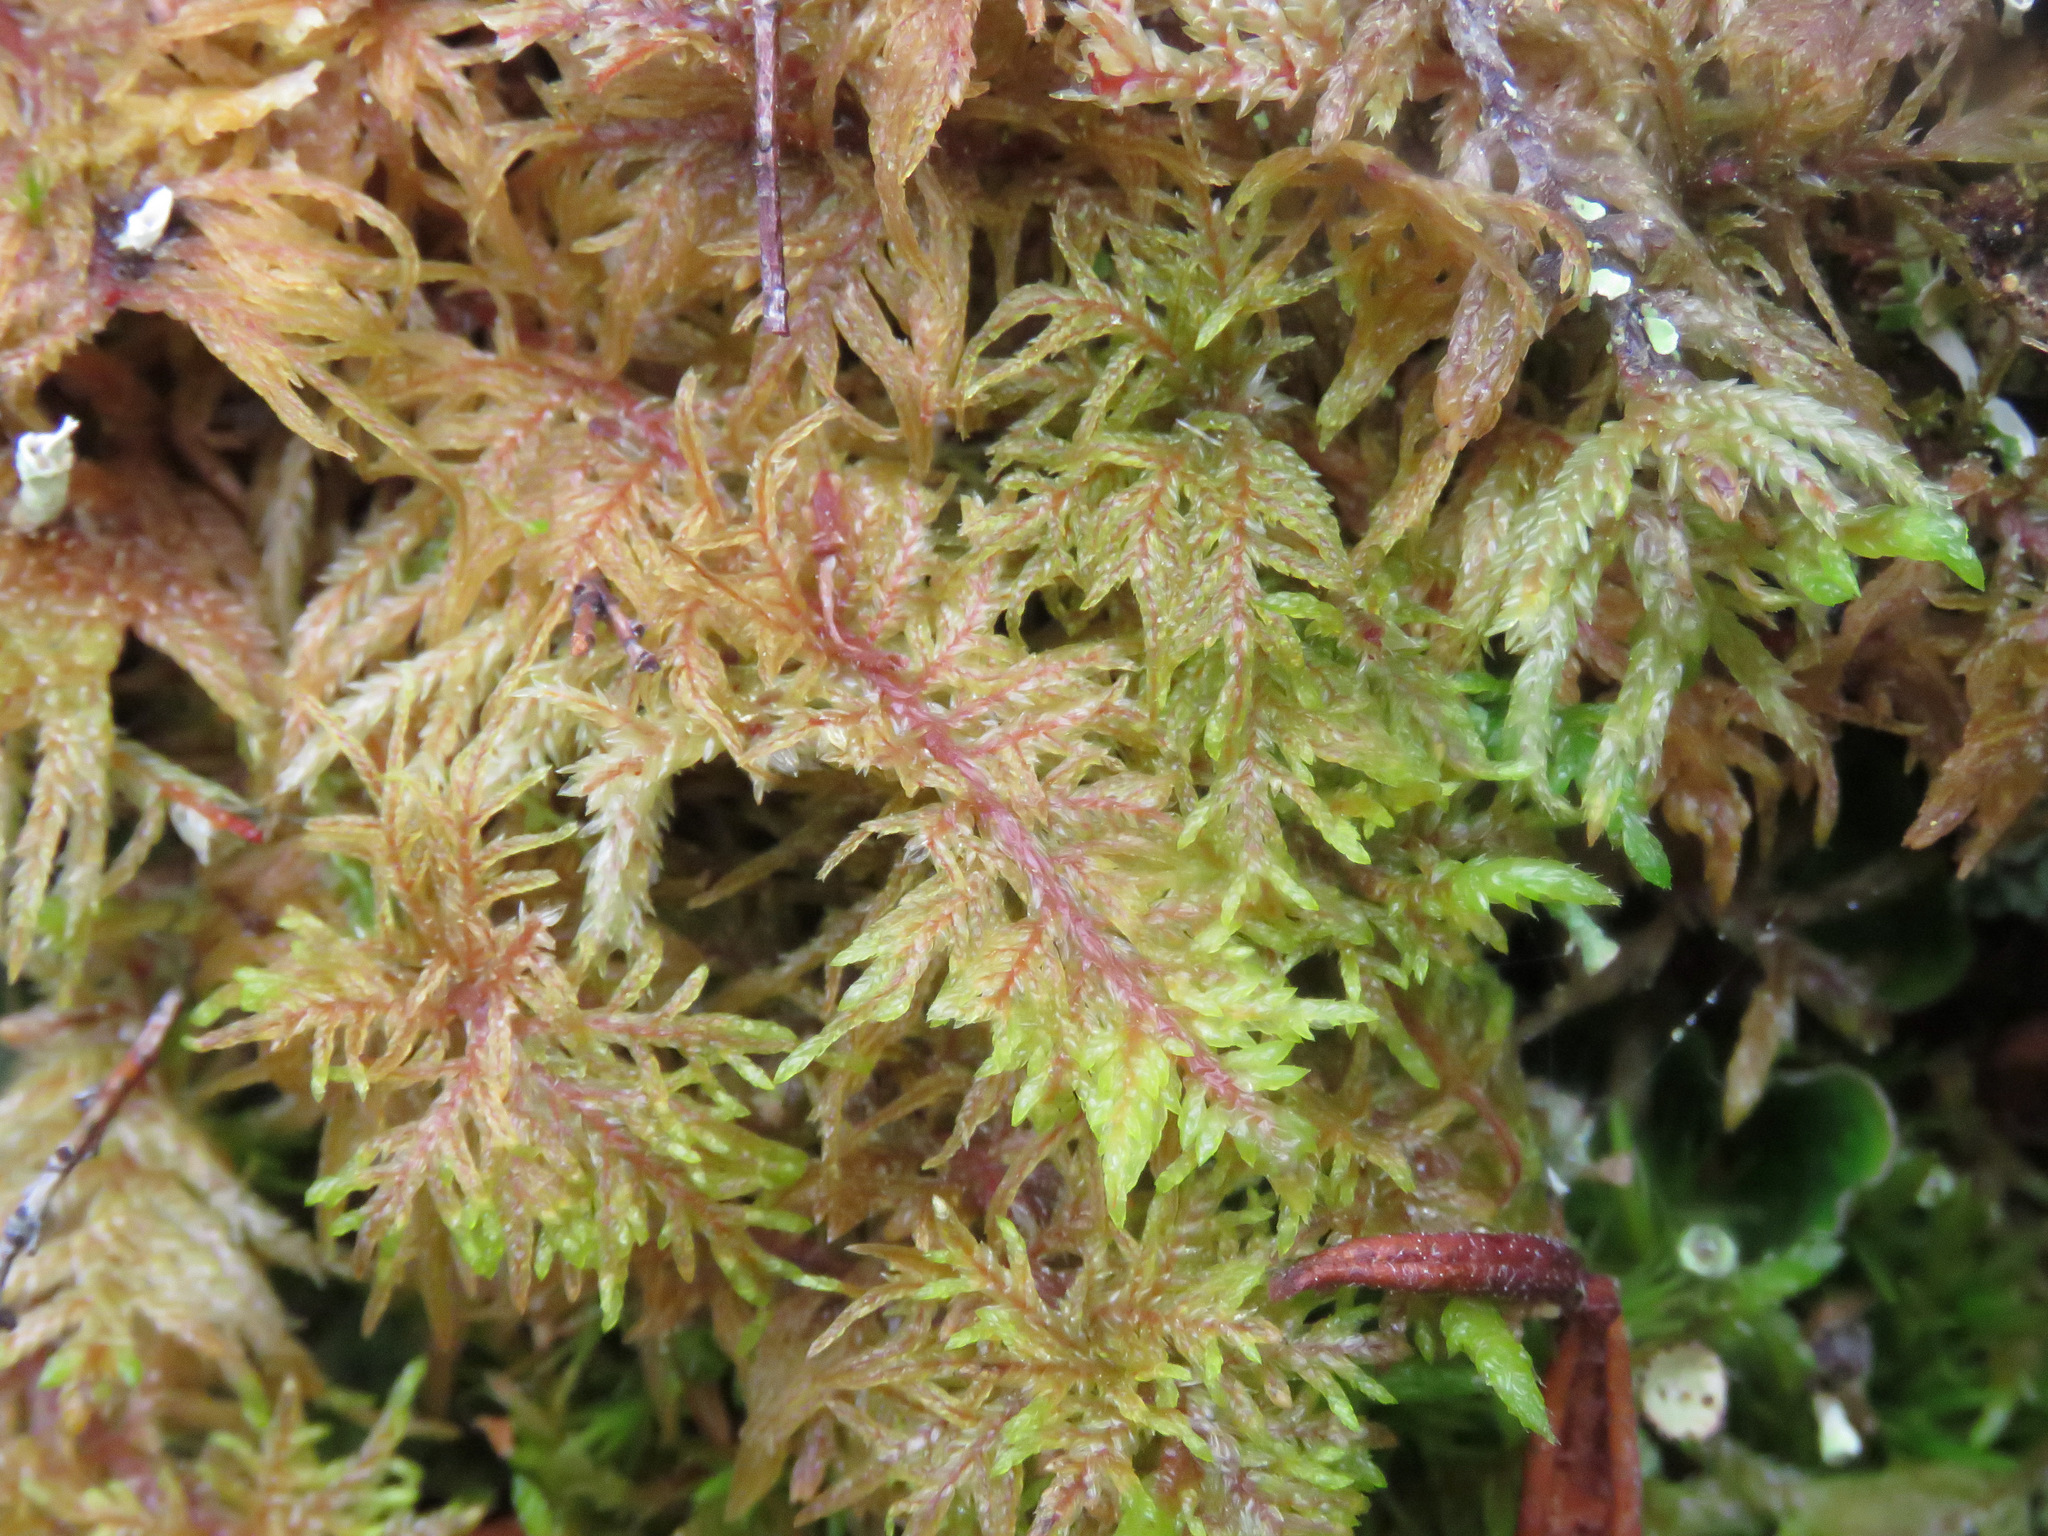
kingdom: Plantae
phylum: Bryophyta
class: Bryopsida
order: Hypnales
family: Hylocomiaceae
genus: Hylocomium
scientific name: Hylocomium splendens
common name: Stairstep moss
